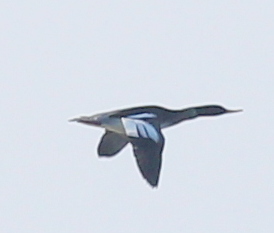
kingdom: Animalia
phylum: Chordata
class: Aves
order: Anseriformes
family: Anatidae
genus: Mergus
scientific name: Mergus serrator
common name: Red-breasted merganser
